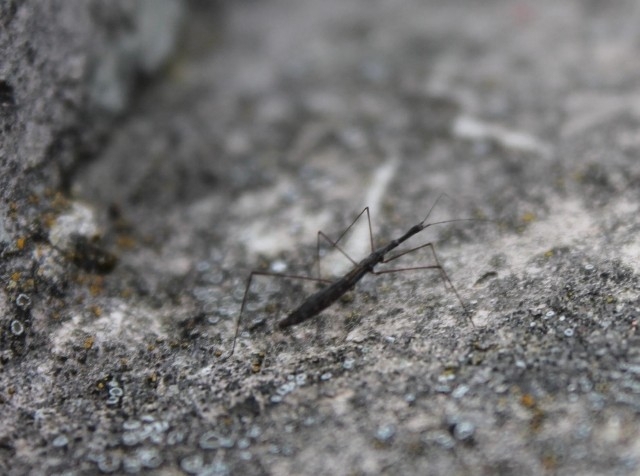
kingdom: Animalia
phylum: Arthropoda
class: Insecta
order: Hemiptera
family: Hydrometridae
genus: Hydrometra
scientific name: Hydrometra stagnorum
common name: Water measurer
